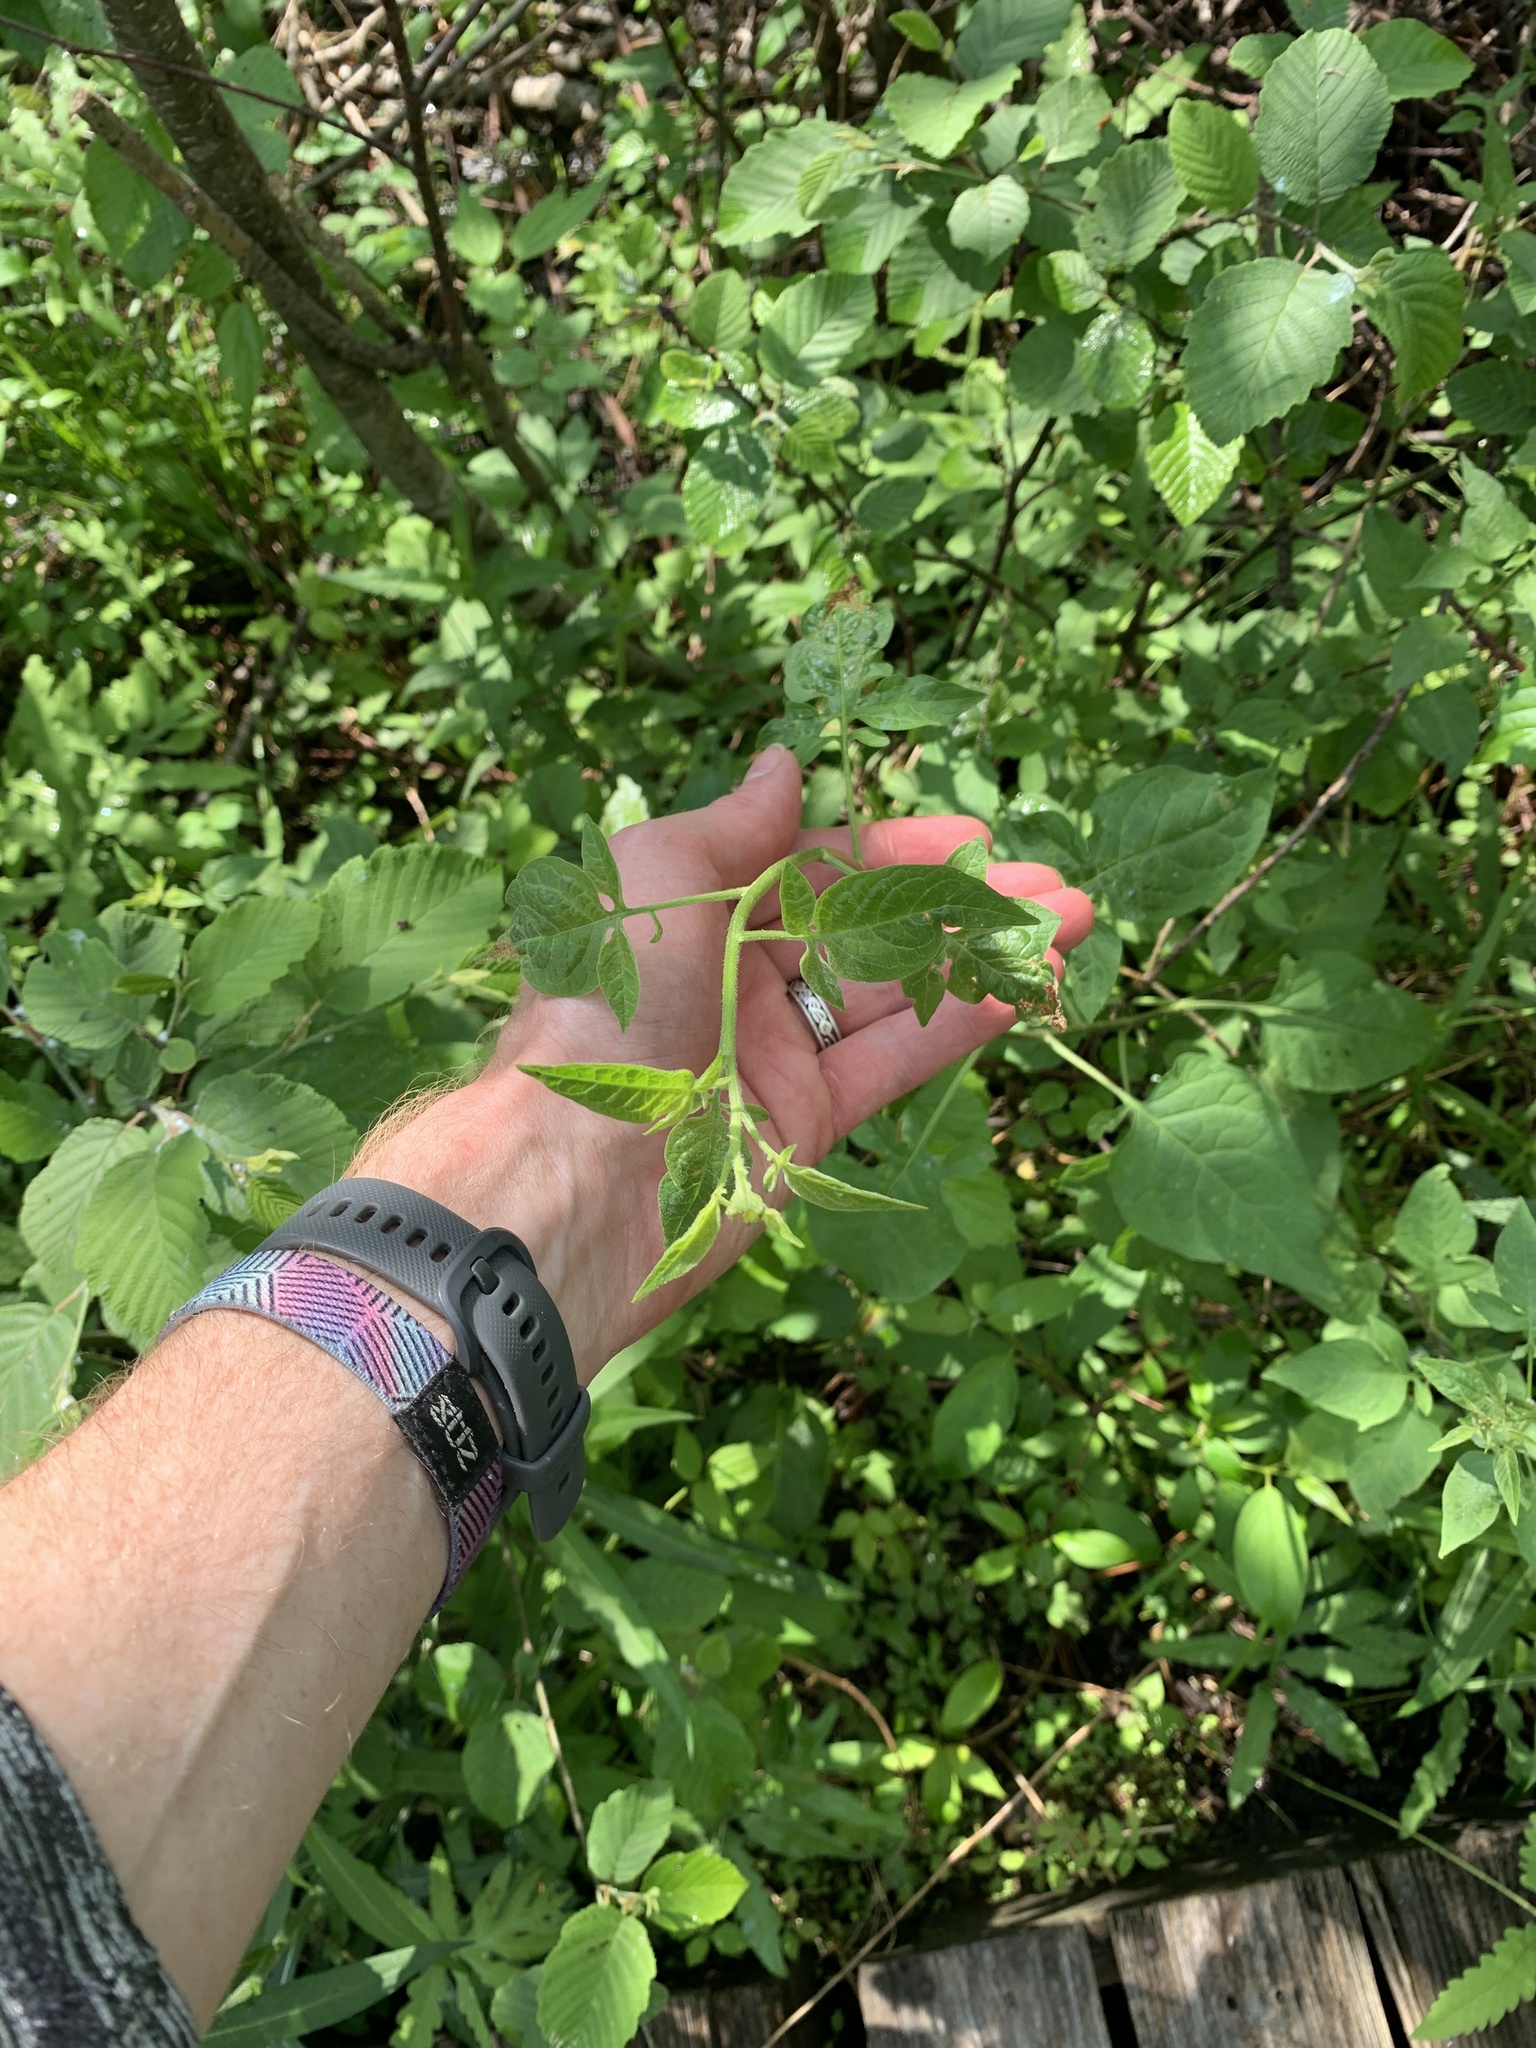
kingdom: Plantae
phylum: Tracheophyta
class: Magnoliopsida
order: Solanales
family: Solanaceae
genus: Solanum
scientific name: Solanum dulcamara
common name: Climbing nightshade
